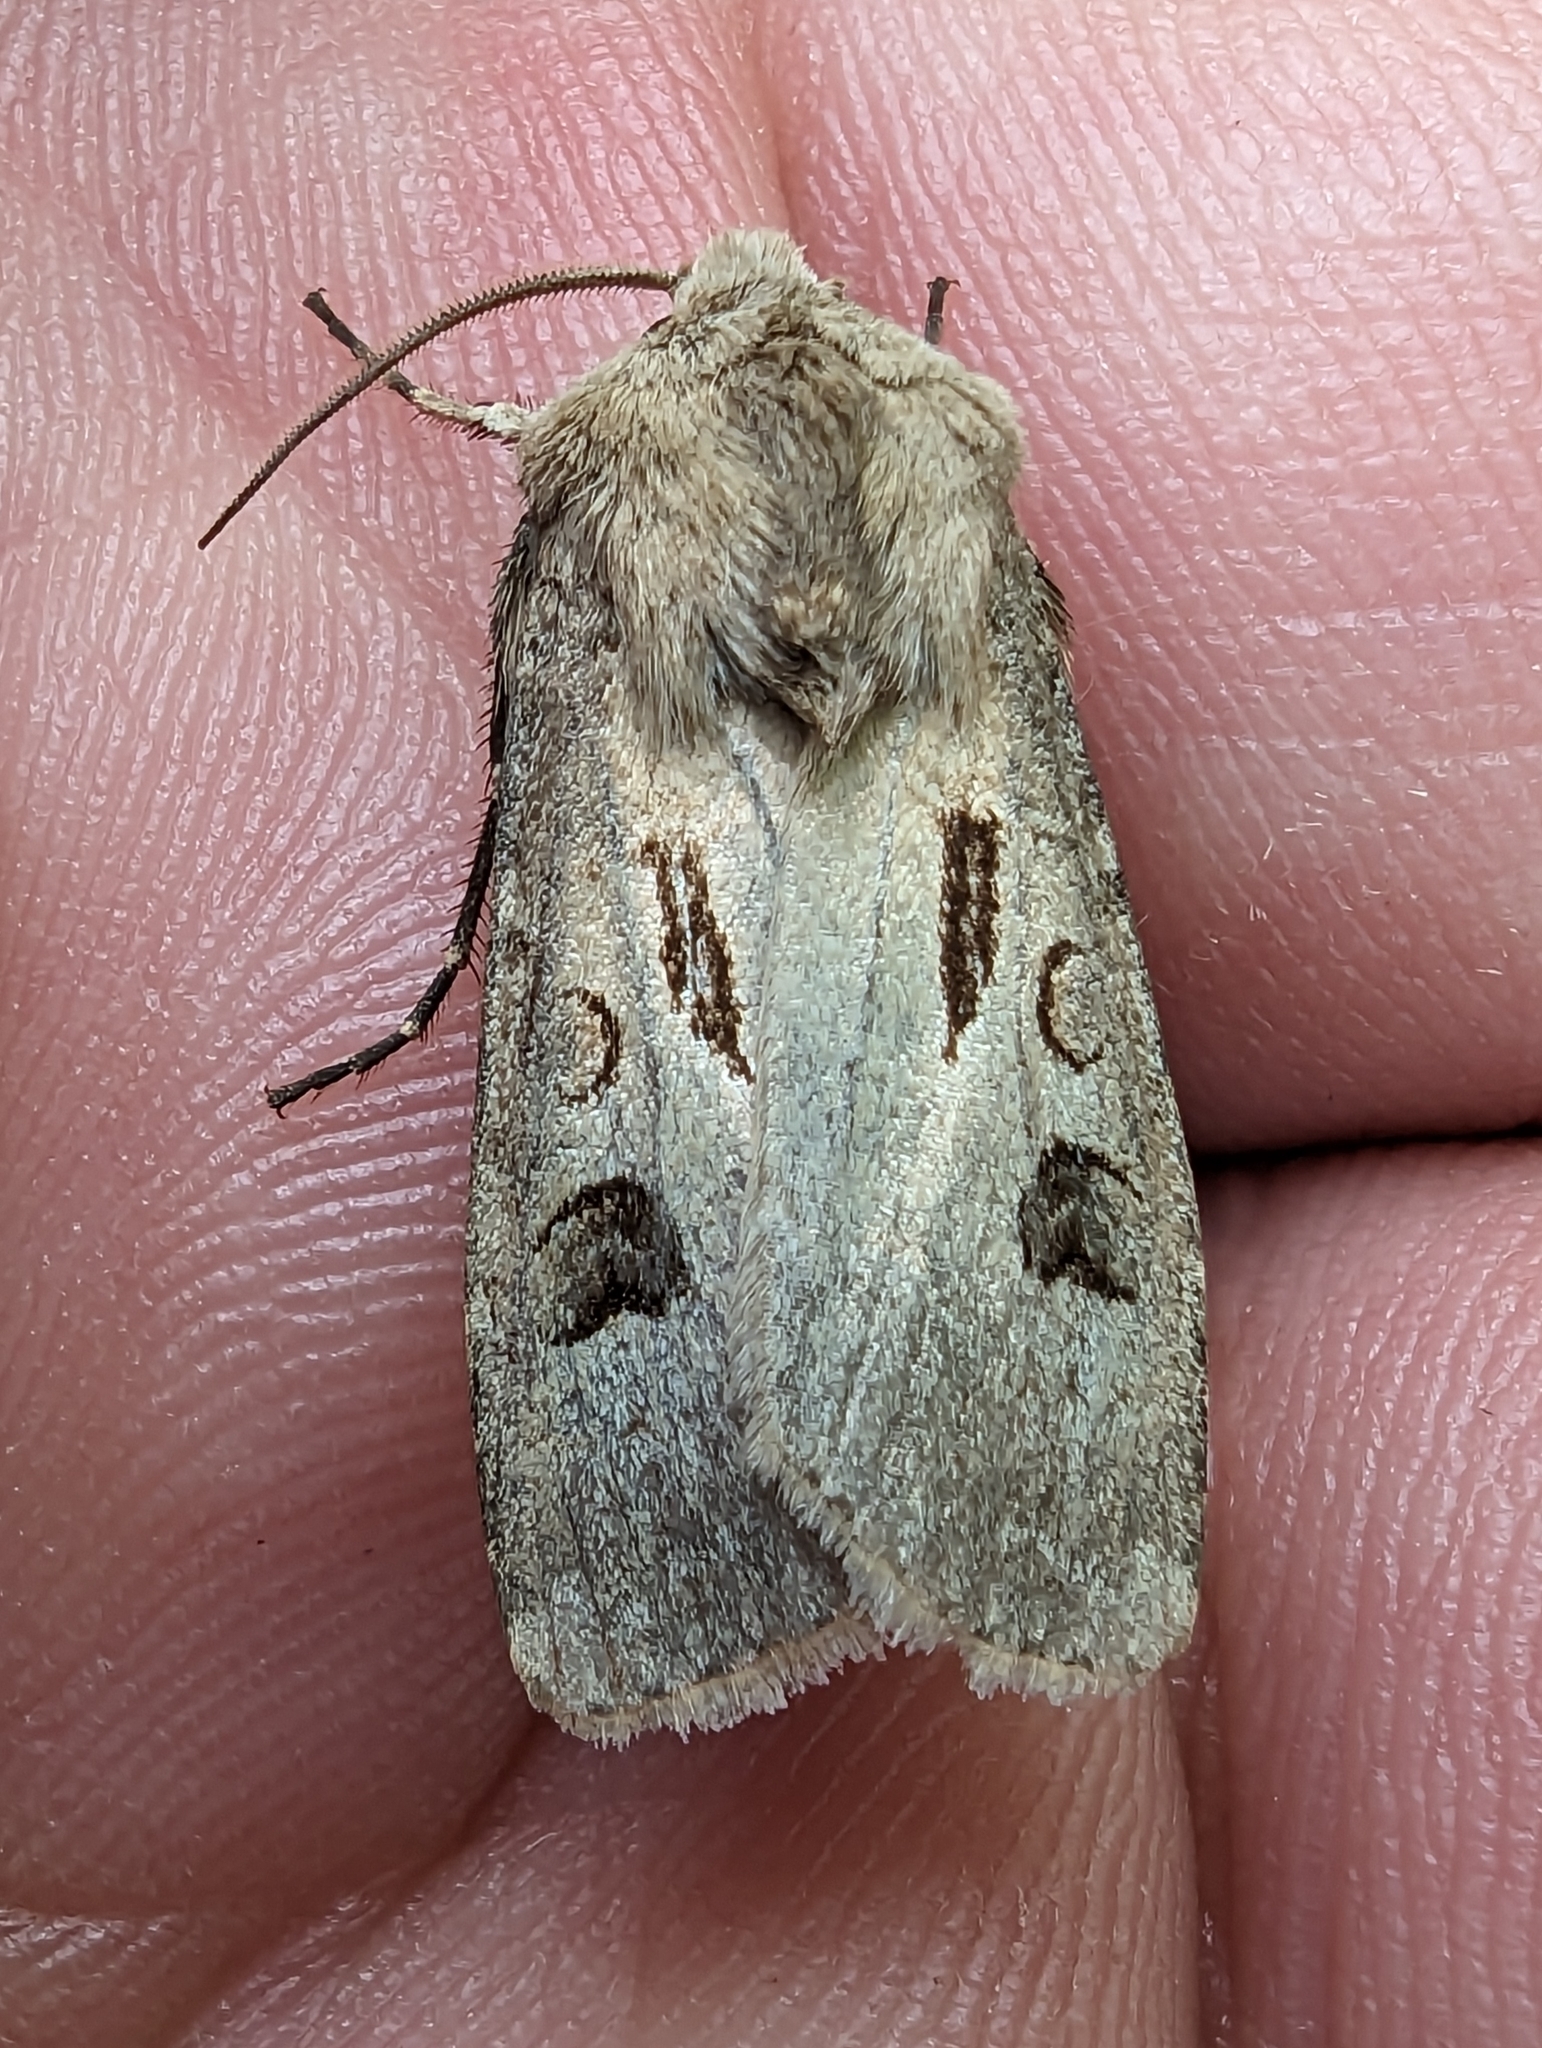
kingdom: Animalia
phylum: Arthropoda
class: Insecta
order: Lepidoptera
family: Noctuidae
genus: Agrotis
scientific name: Agrotis exclamationis
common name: Heart and dart
